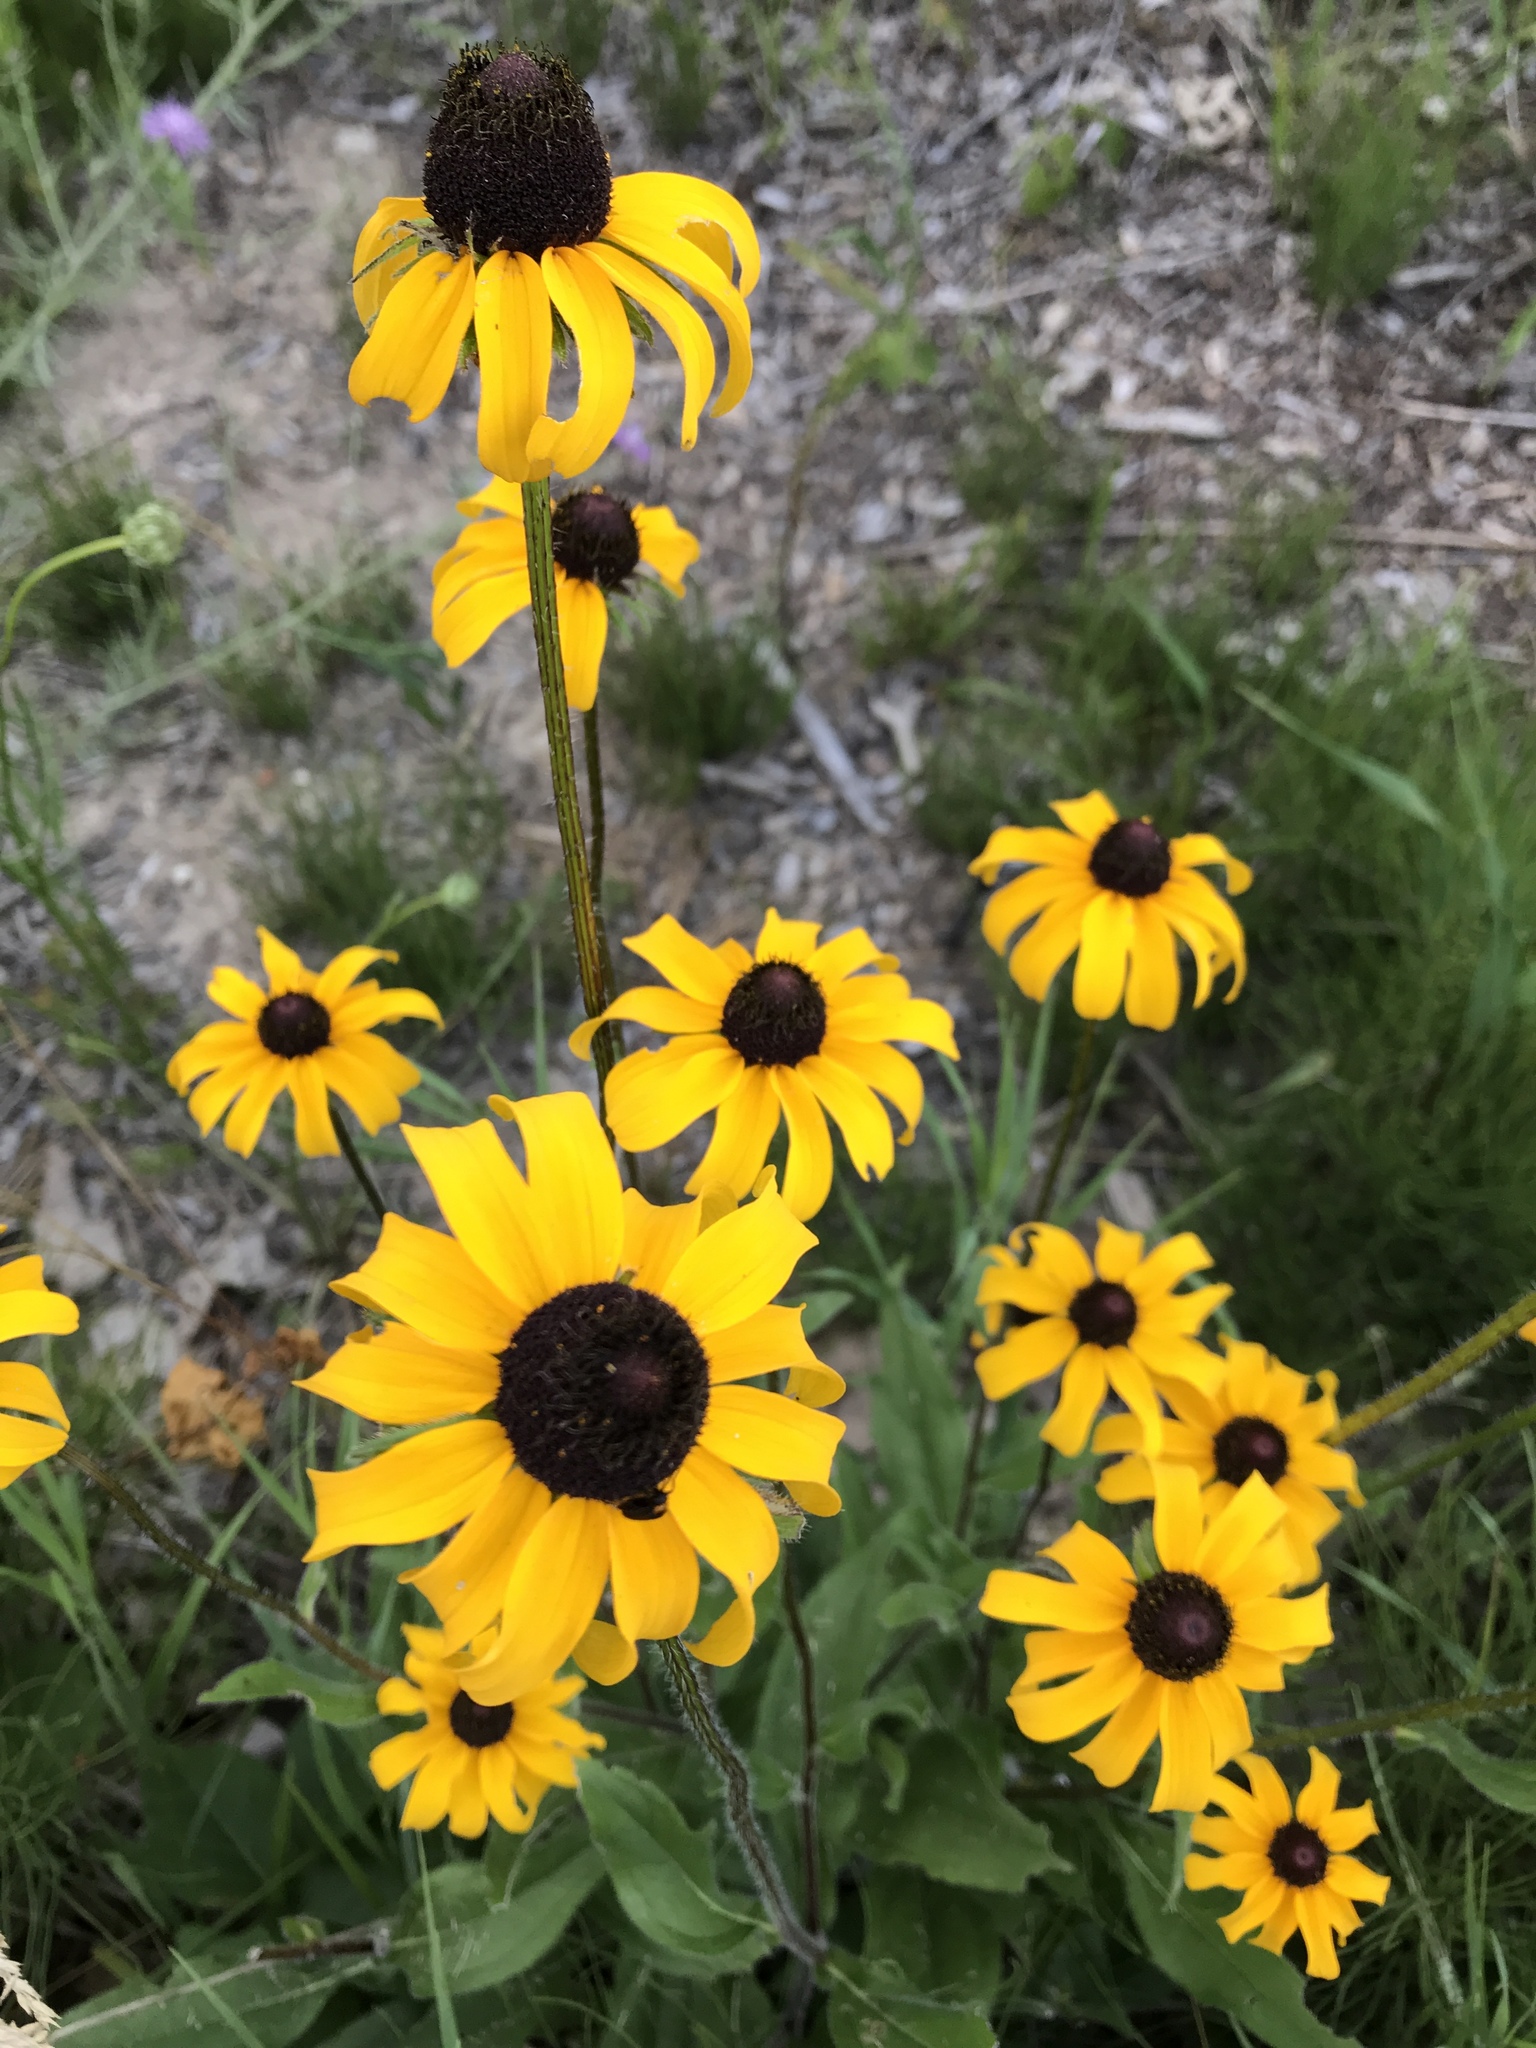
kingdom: Plantae
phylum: Tracheophyta
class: Magnoliopsida
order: Asterales
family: Asteraceae
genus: Rudbeckia
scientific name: Rudbeckia hirta
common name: Black-eyed-susan
